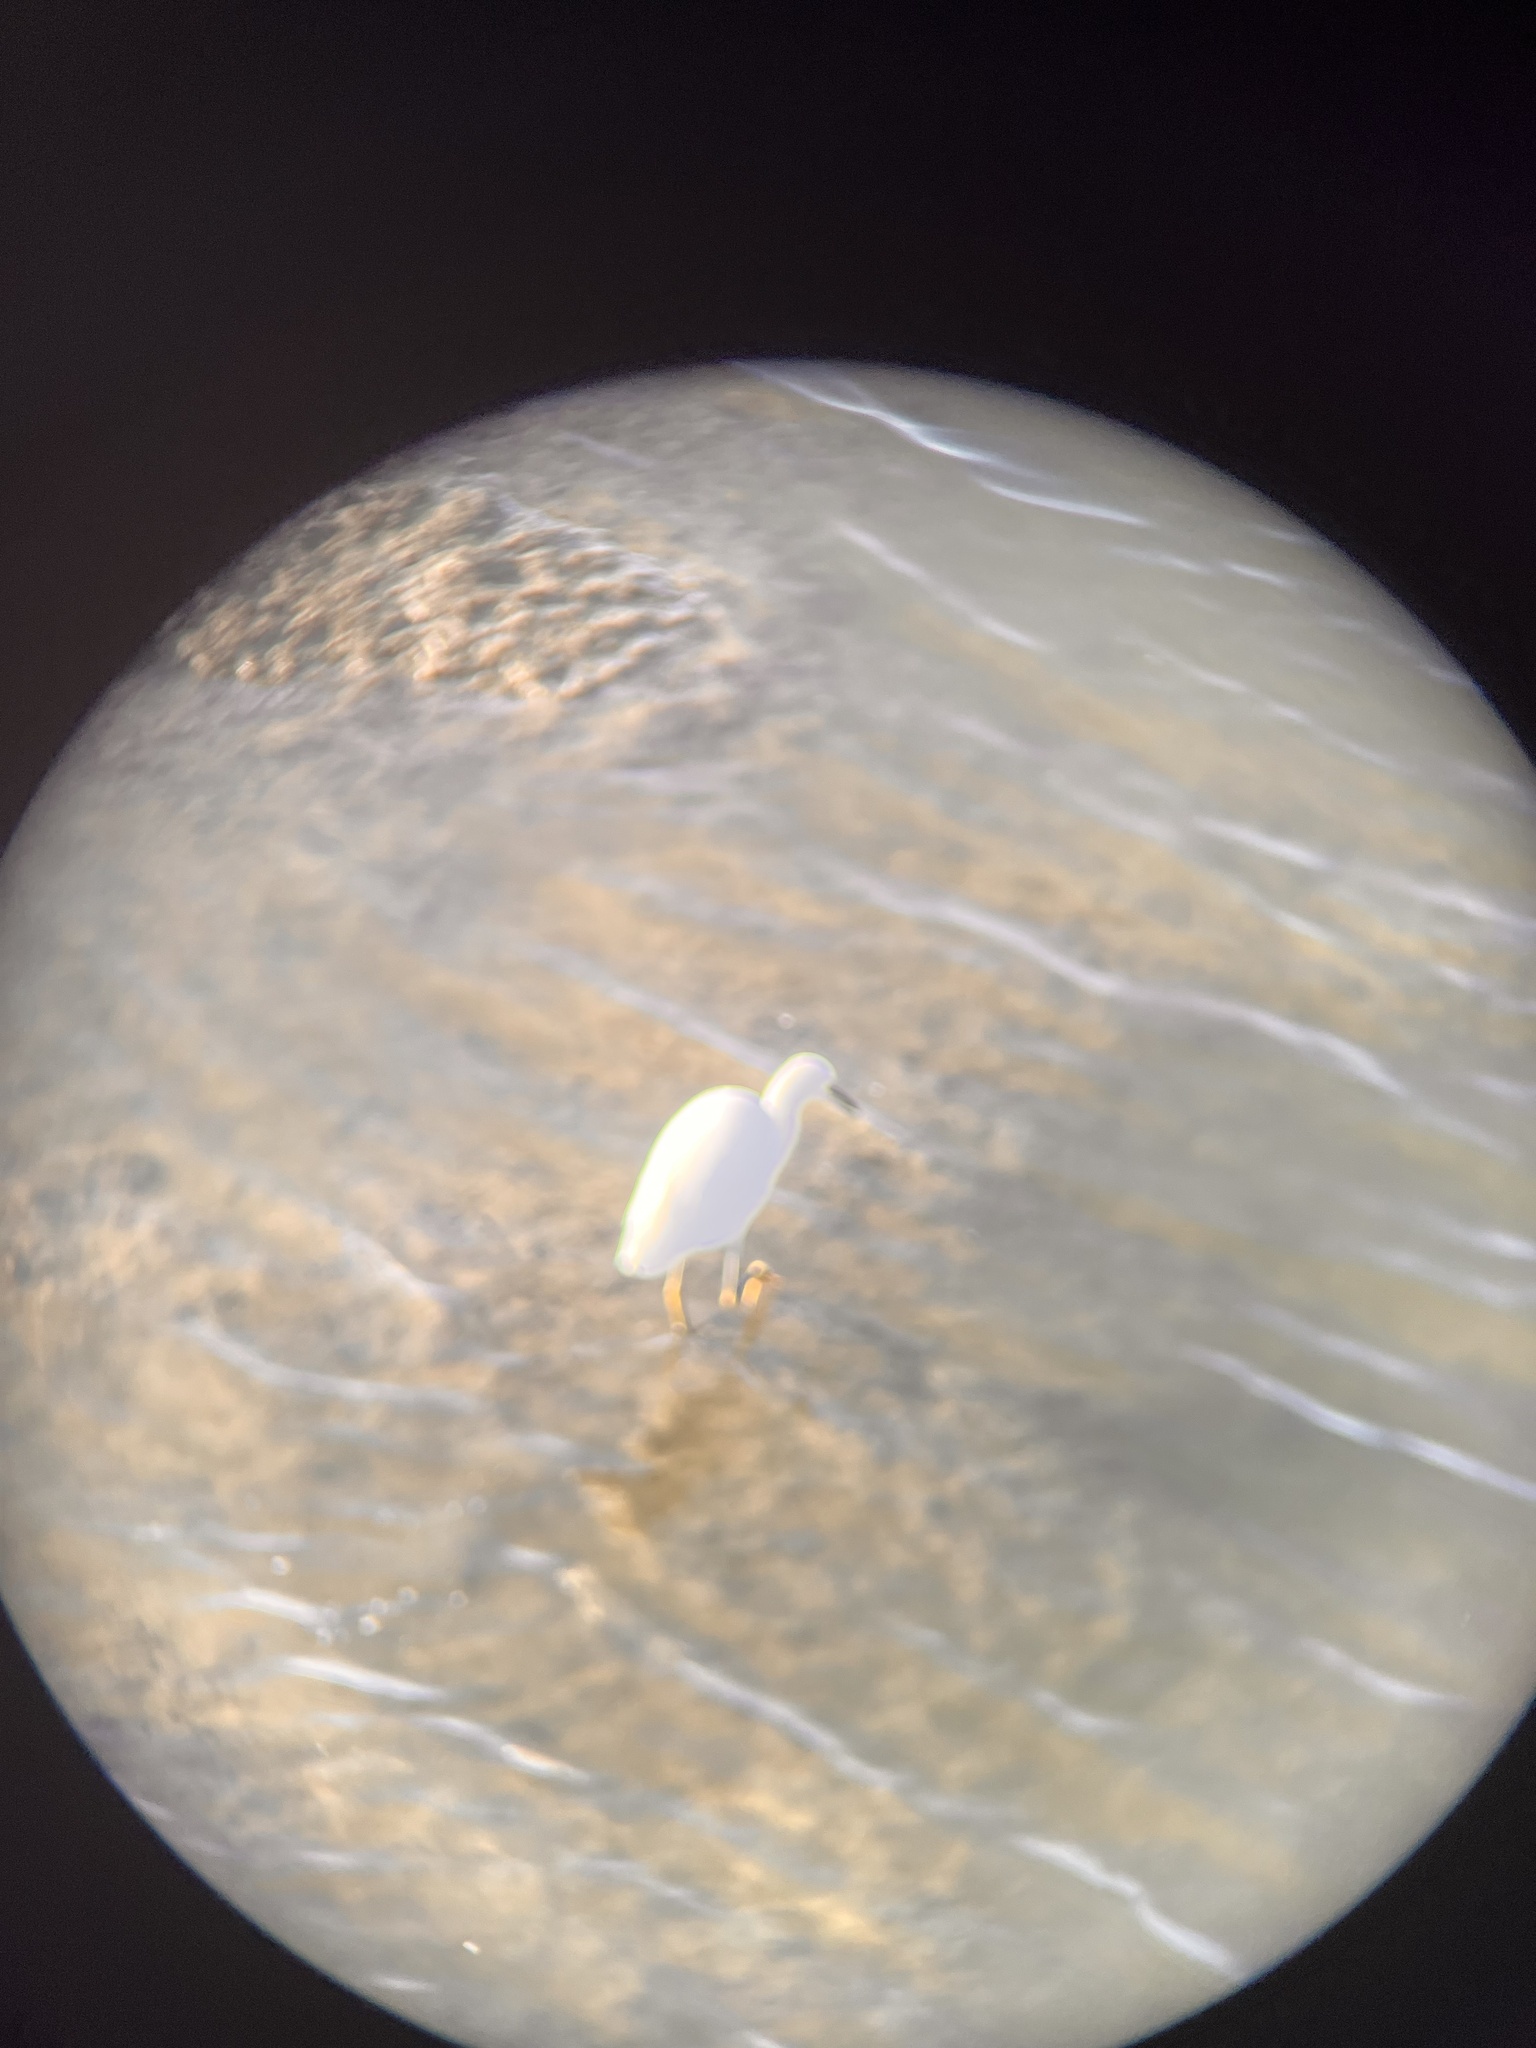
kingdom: Animalia
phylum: Chordata
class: Aves
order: Pelecaniformes
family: Ardeidae
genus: Egretta
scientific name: Egretta thula
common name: Snowy egret
